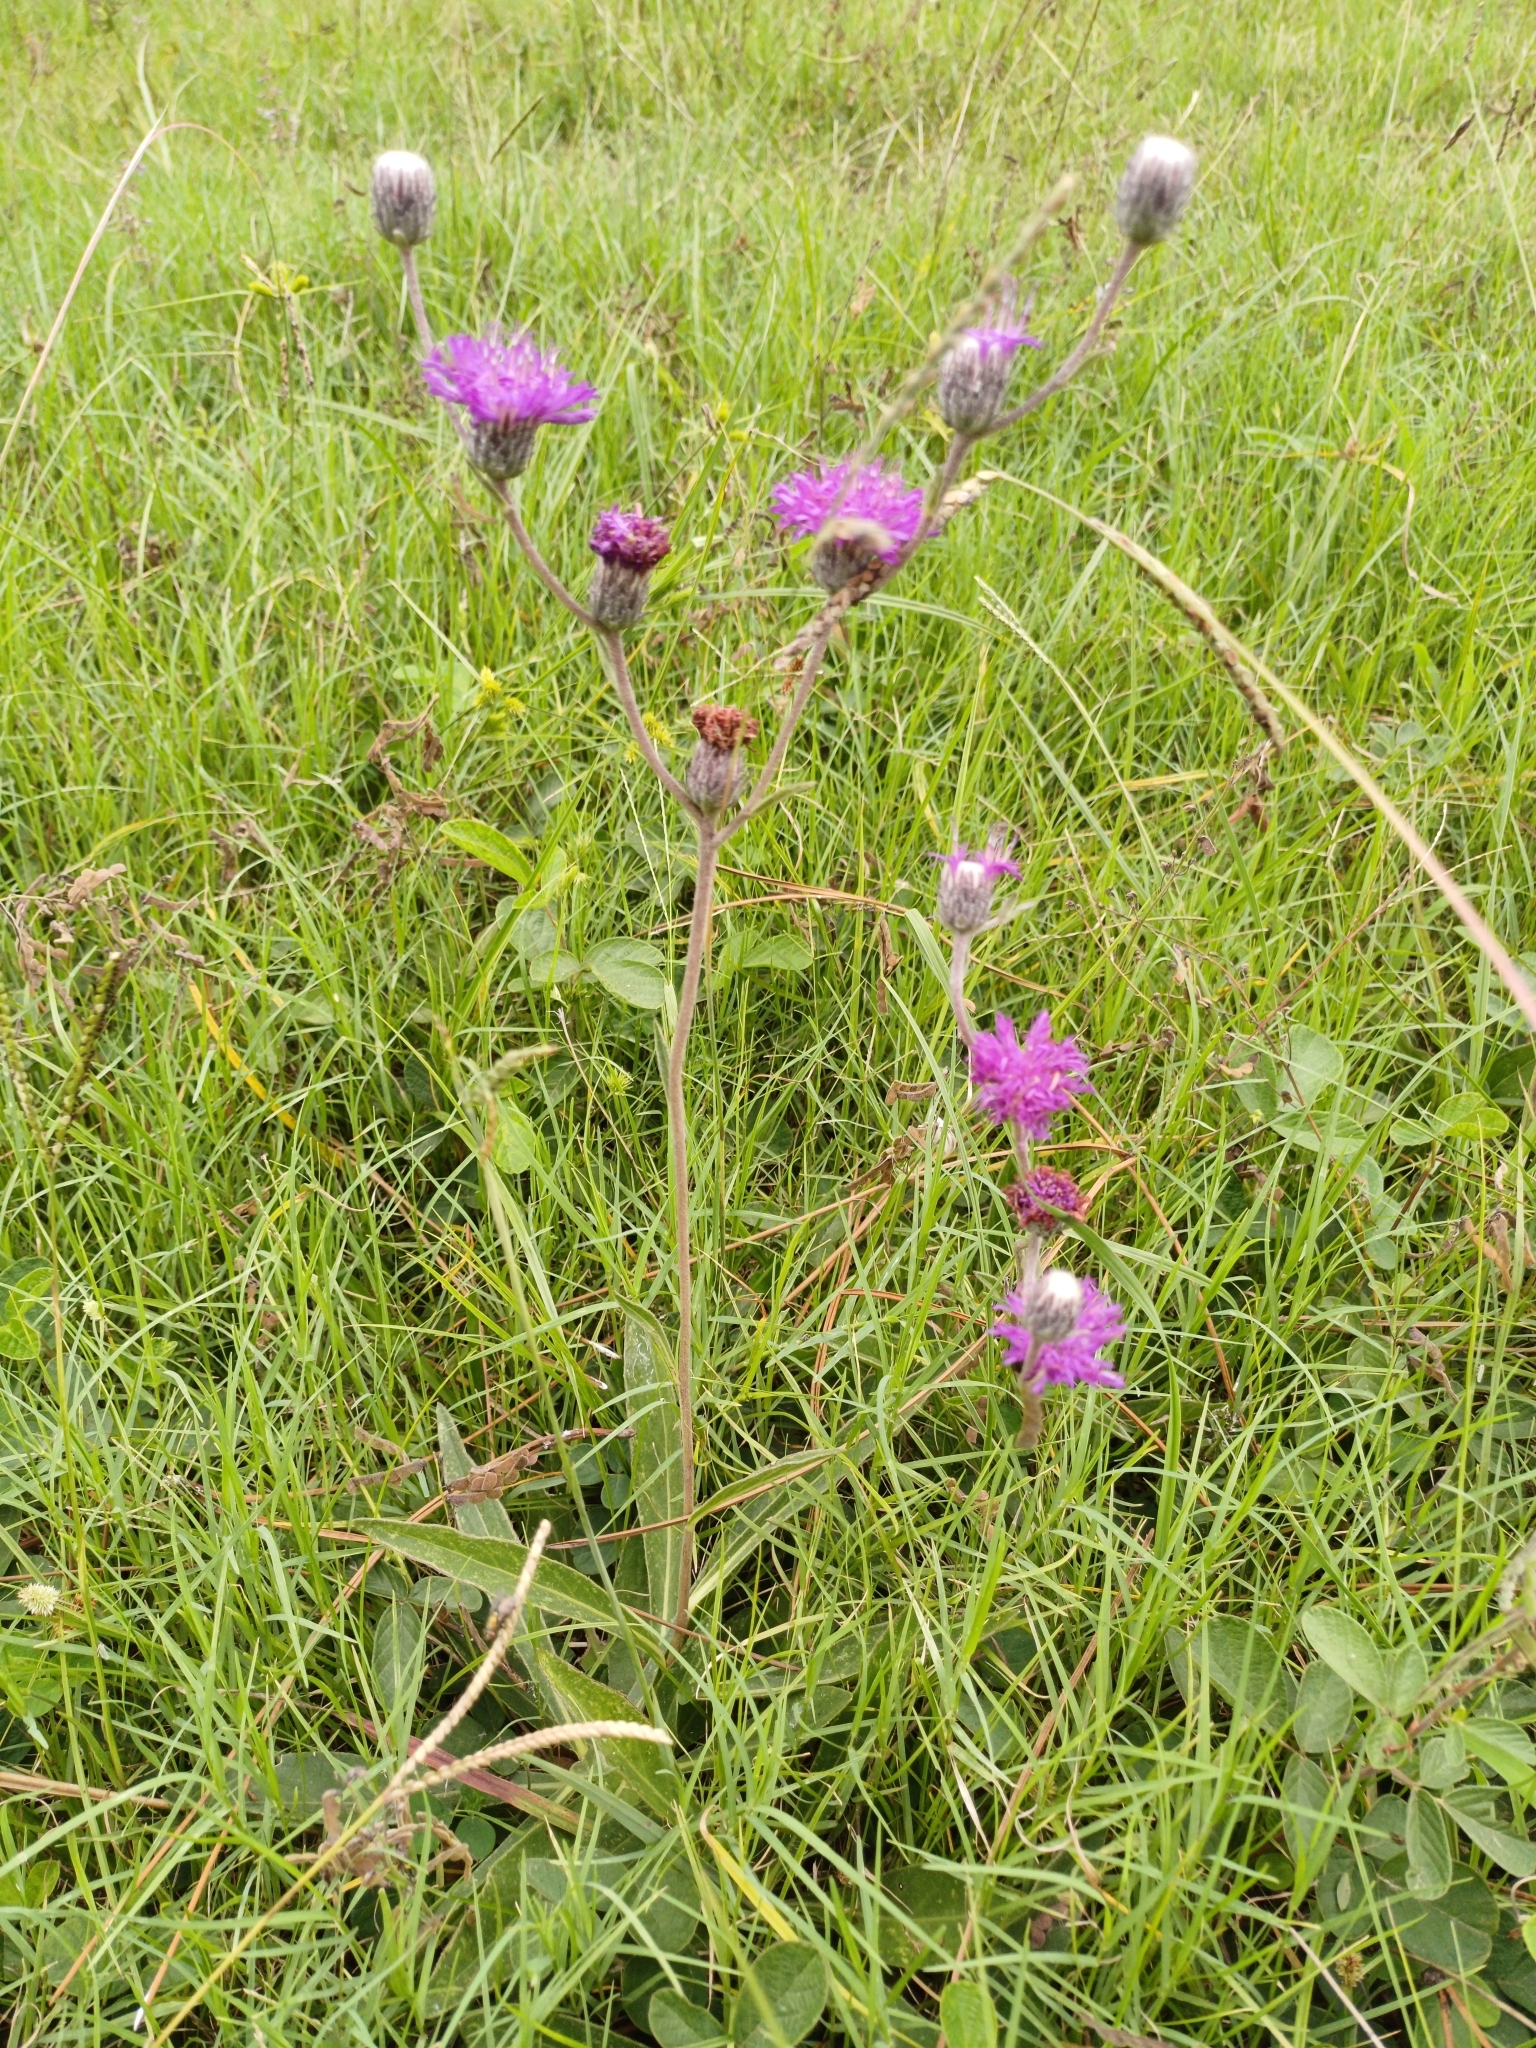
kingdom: Plantae
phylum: Tracheophyta
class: Magnoliopsida
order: Asterales
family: Asteraceae
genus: Chrysolaena
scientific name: Chrysolaena flexuosa
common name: Zig-zag vernonia
